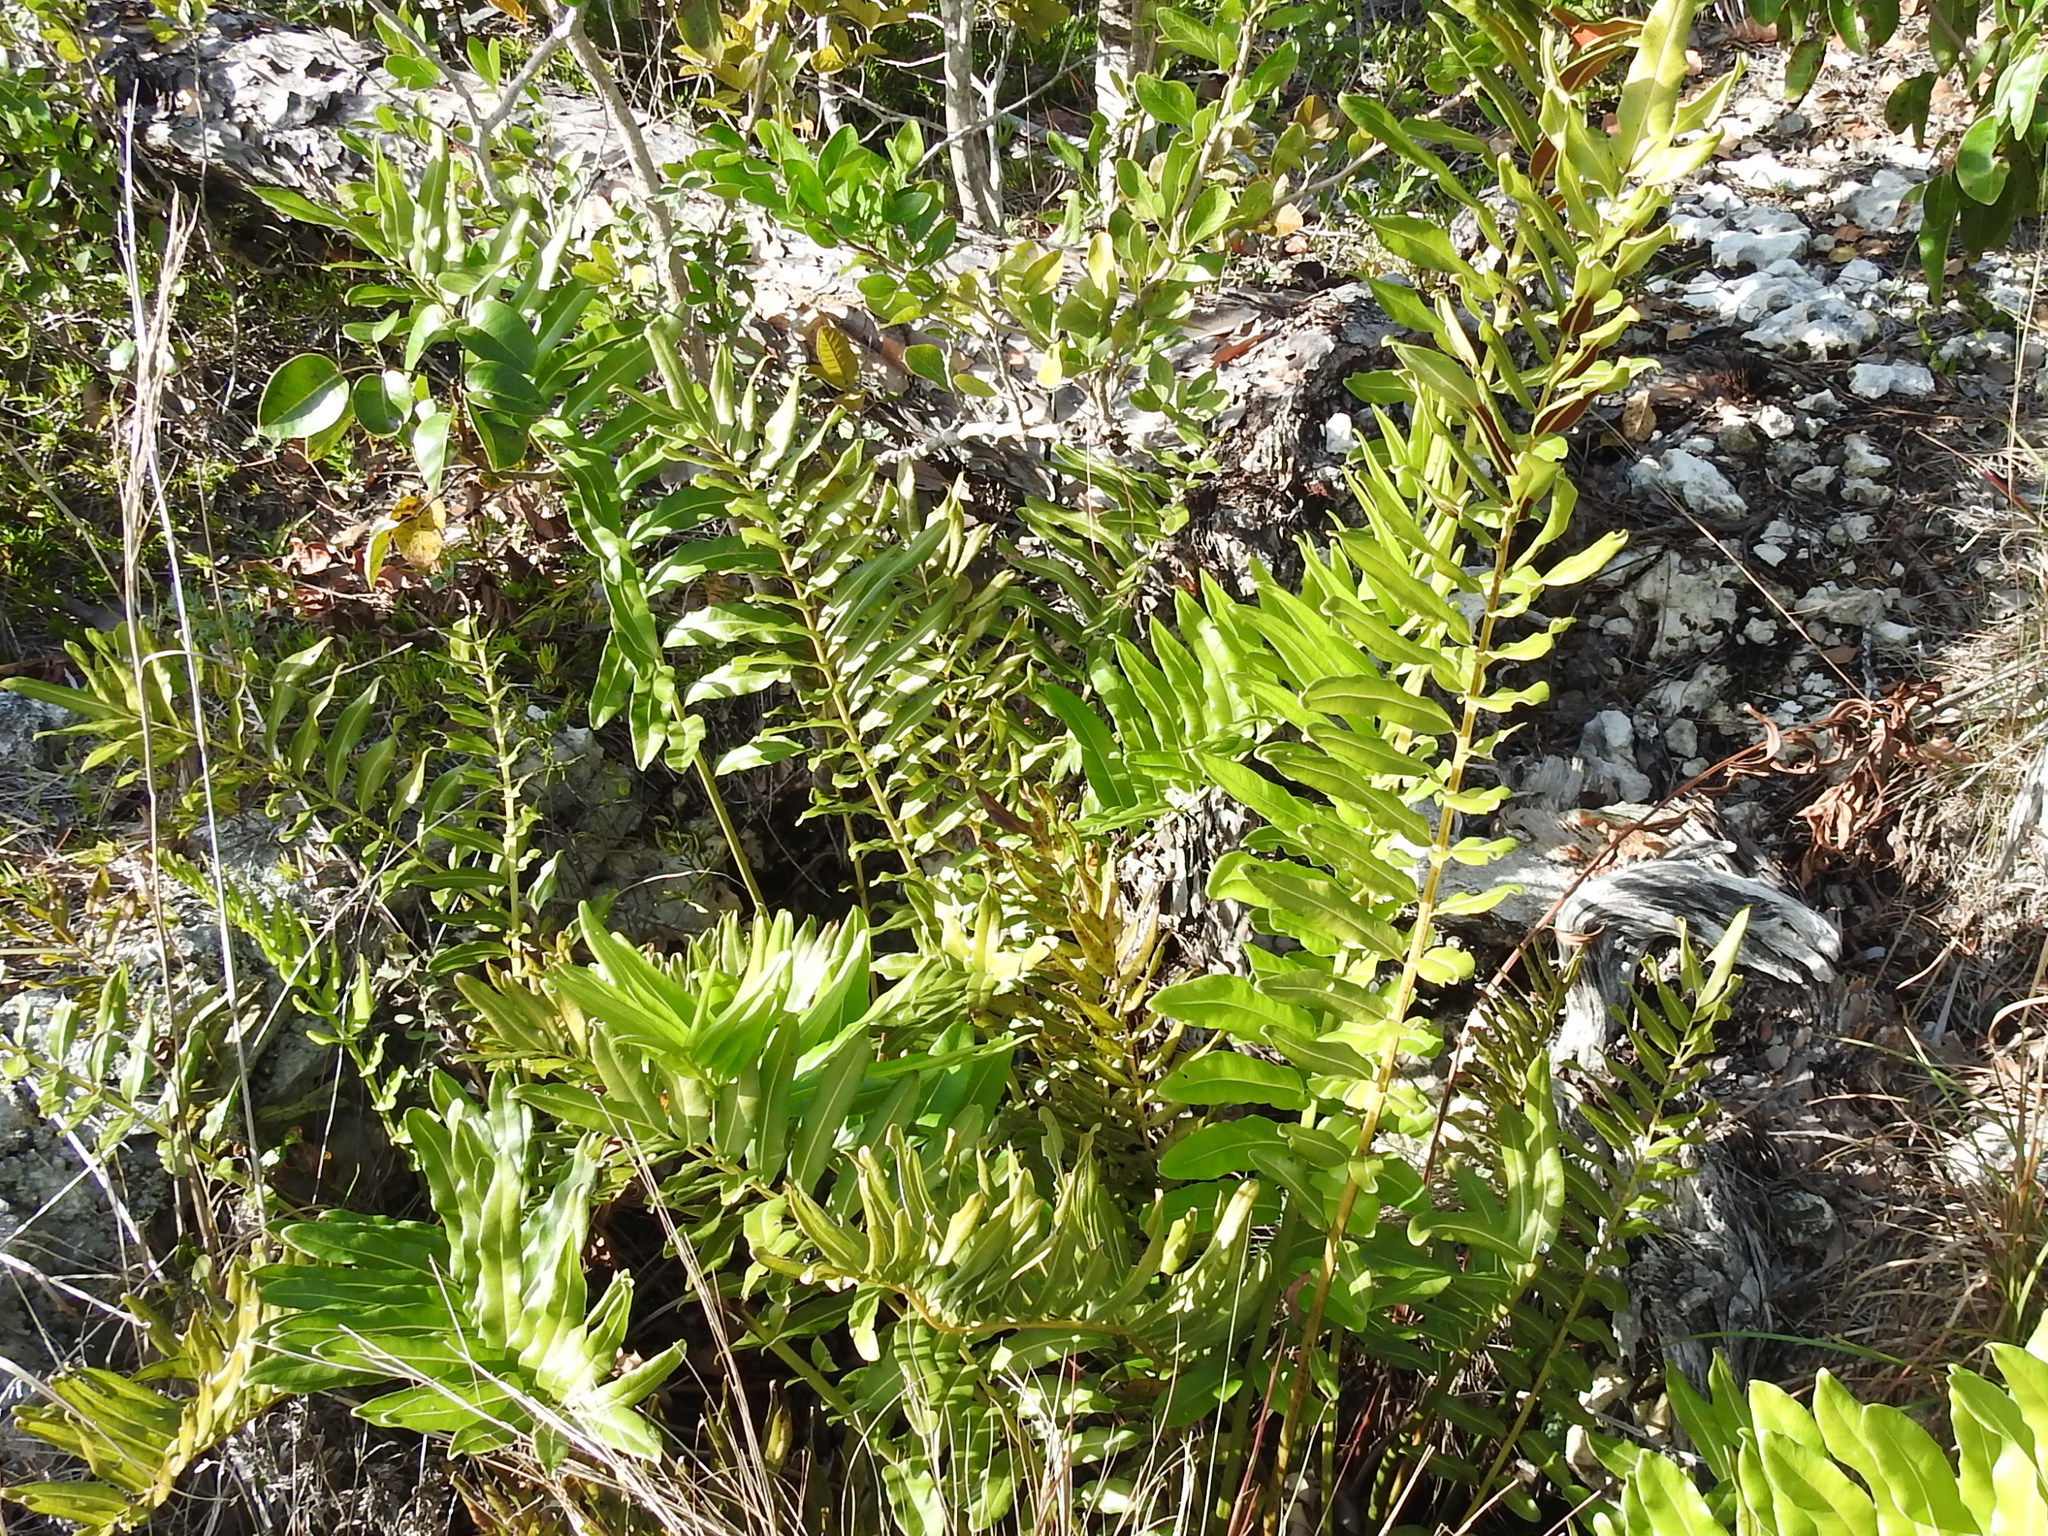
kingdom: Plantae
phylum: Tracheophyta
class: Polypodiopsida
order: Polypodiales
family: Pteridaceae
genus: Acrostichum
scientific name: Acrostichum danaeifolium
